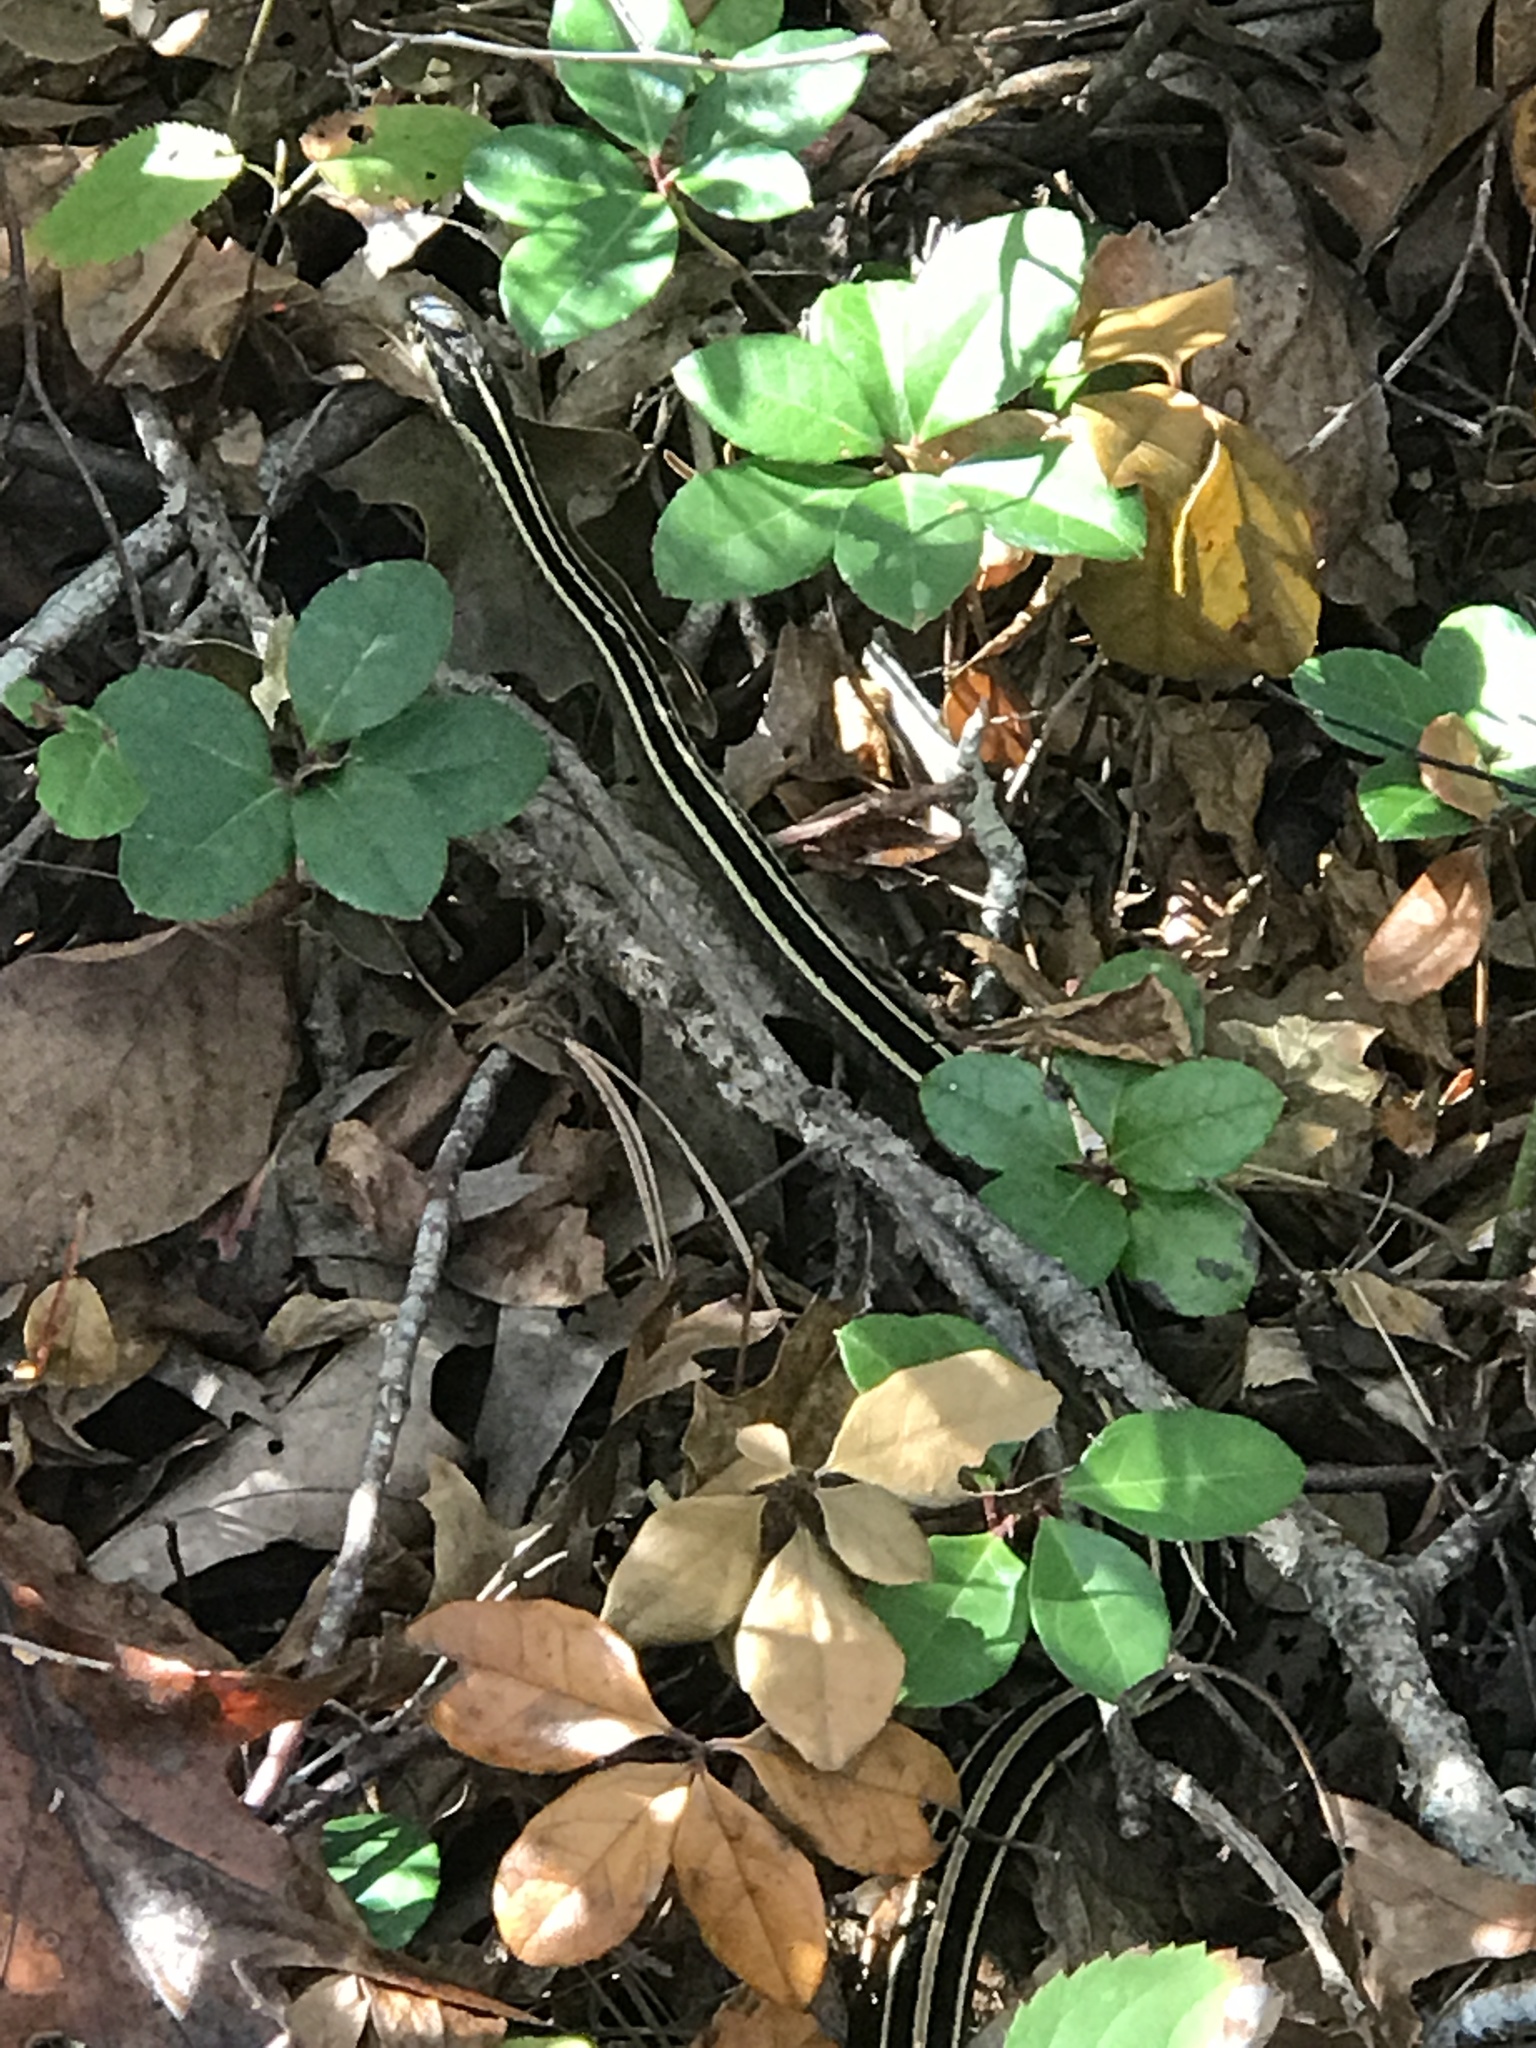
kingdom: Animalia
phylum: Chordata
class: Squamata
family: Colubridae
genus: Thamnophis
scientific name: Thamnophis saurita
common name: Eastern ribbonsnake
